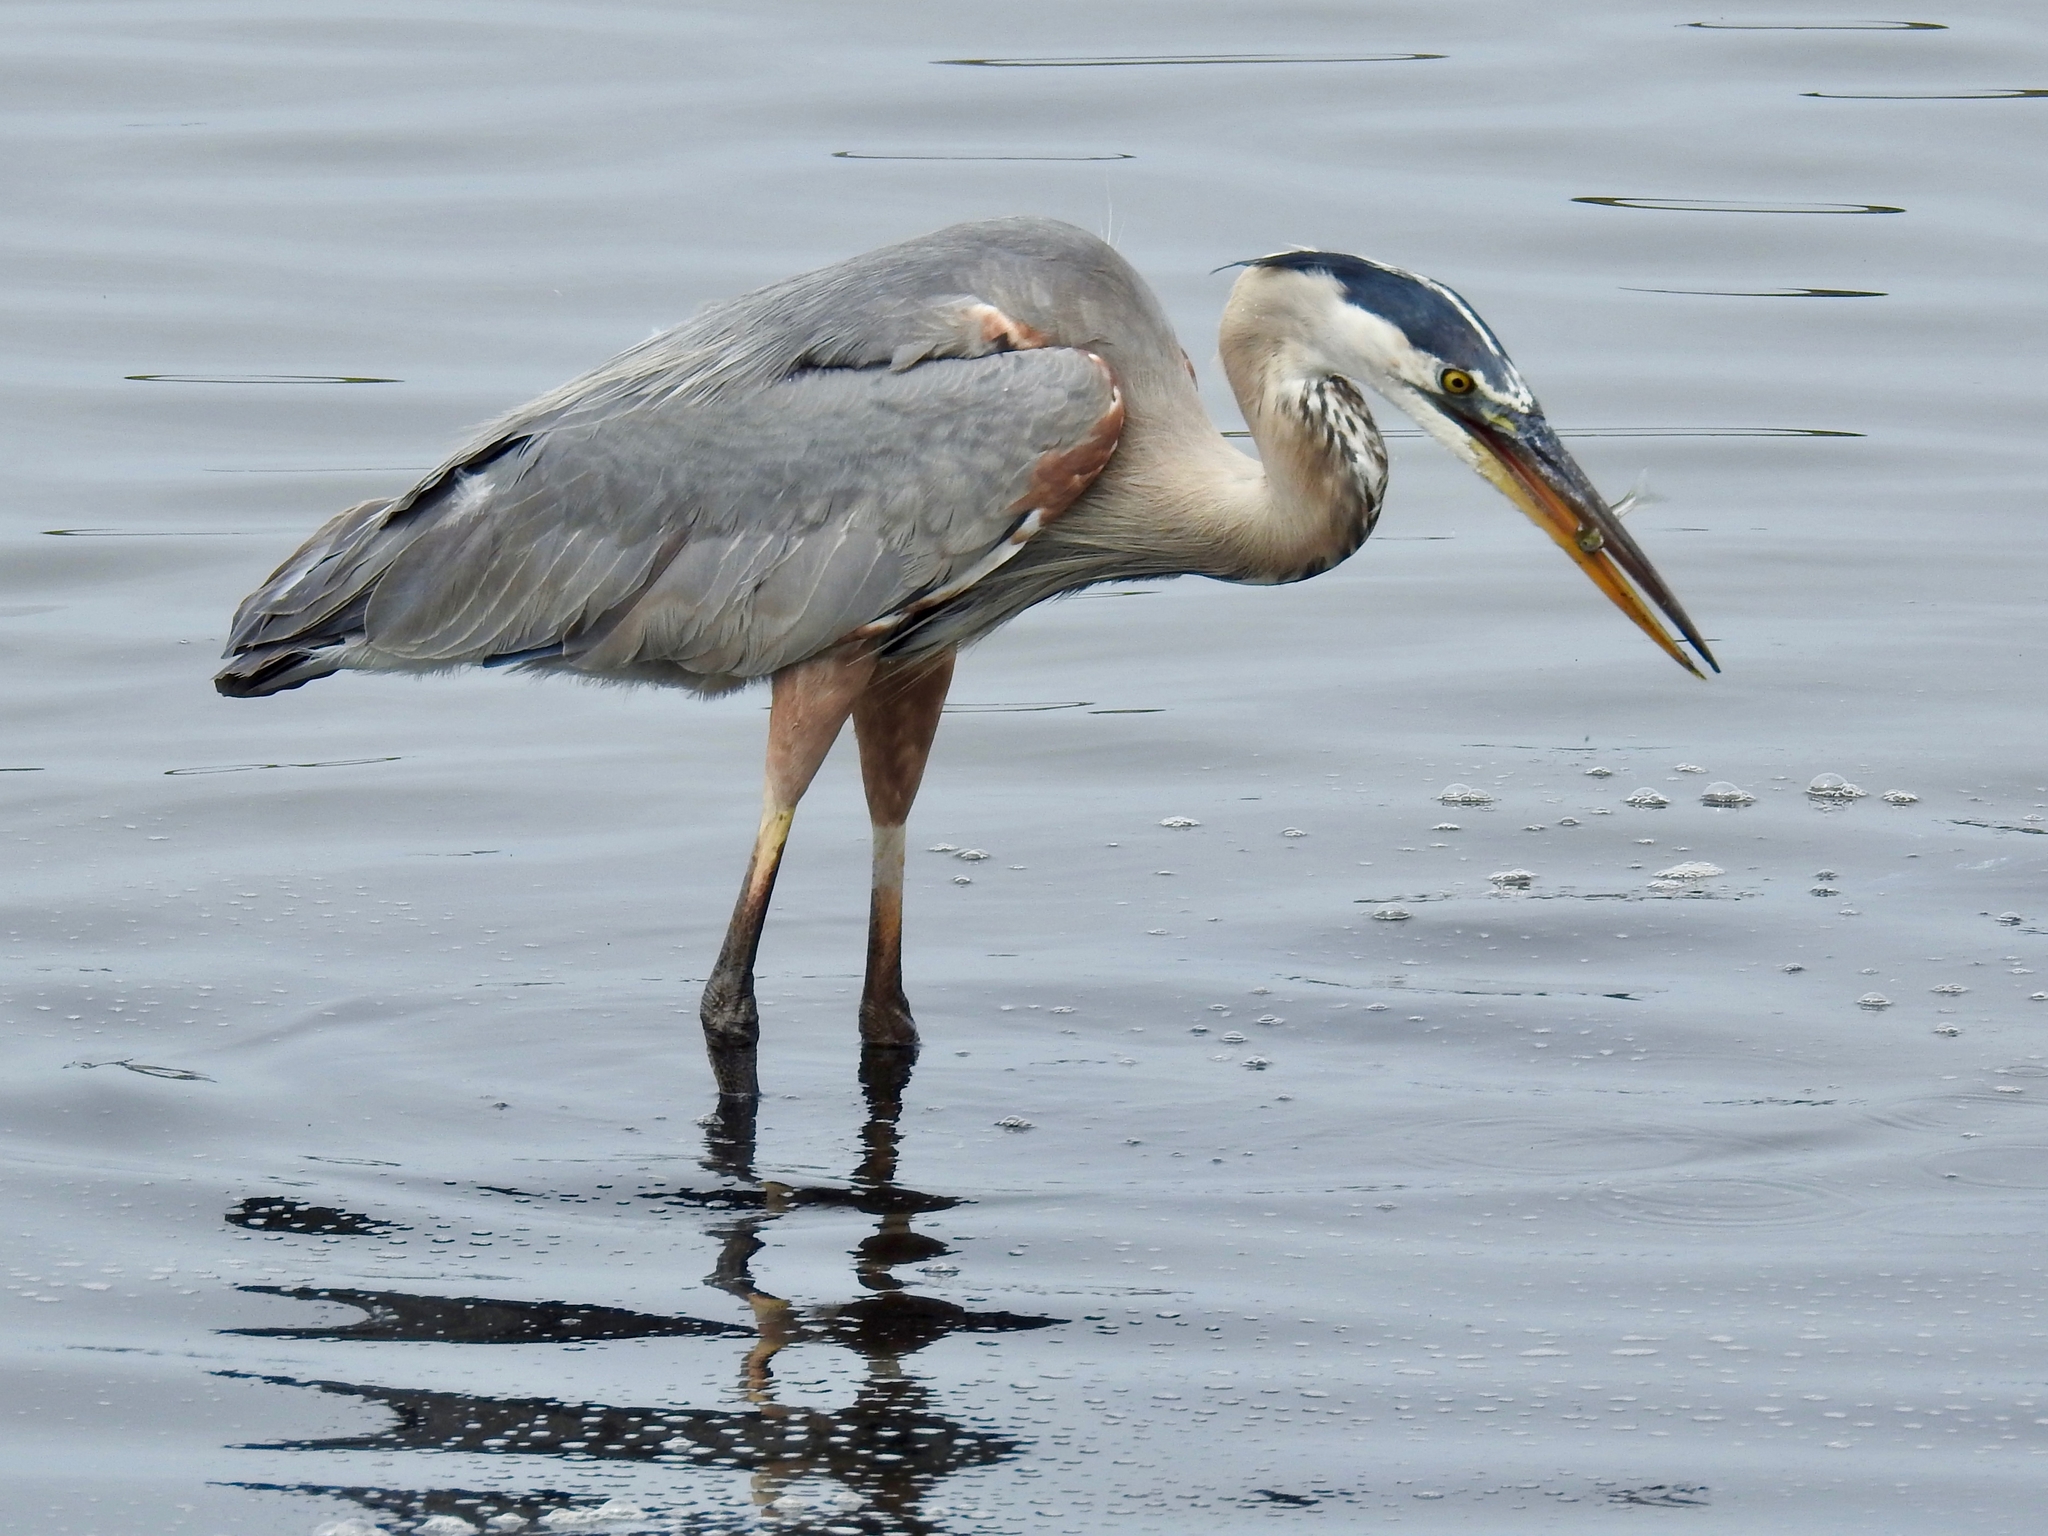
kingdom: Animalia
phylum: Chordata
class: Aves
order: Pelecaniformes
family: Ardeidae
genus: Ardea
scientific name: Ardea herodias
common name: Great blue heron
